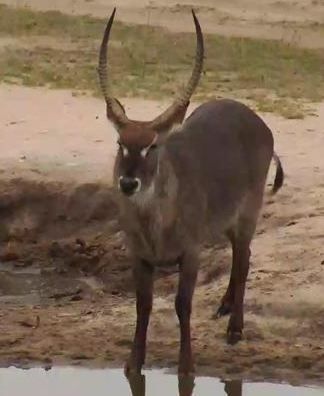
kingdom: Animalia
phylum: Chordata
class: Mammalia
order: Artiodactyla
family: Bovidae
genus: Kobus
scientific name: Kobus ellipsiprymnus
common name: Waterbuck
